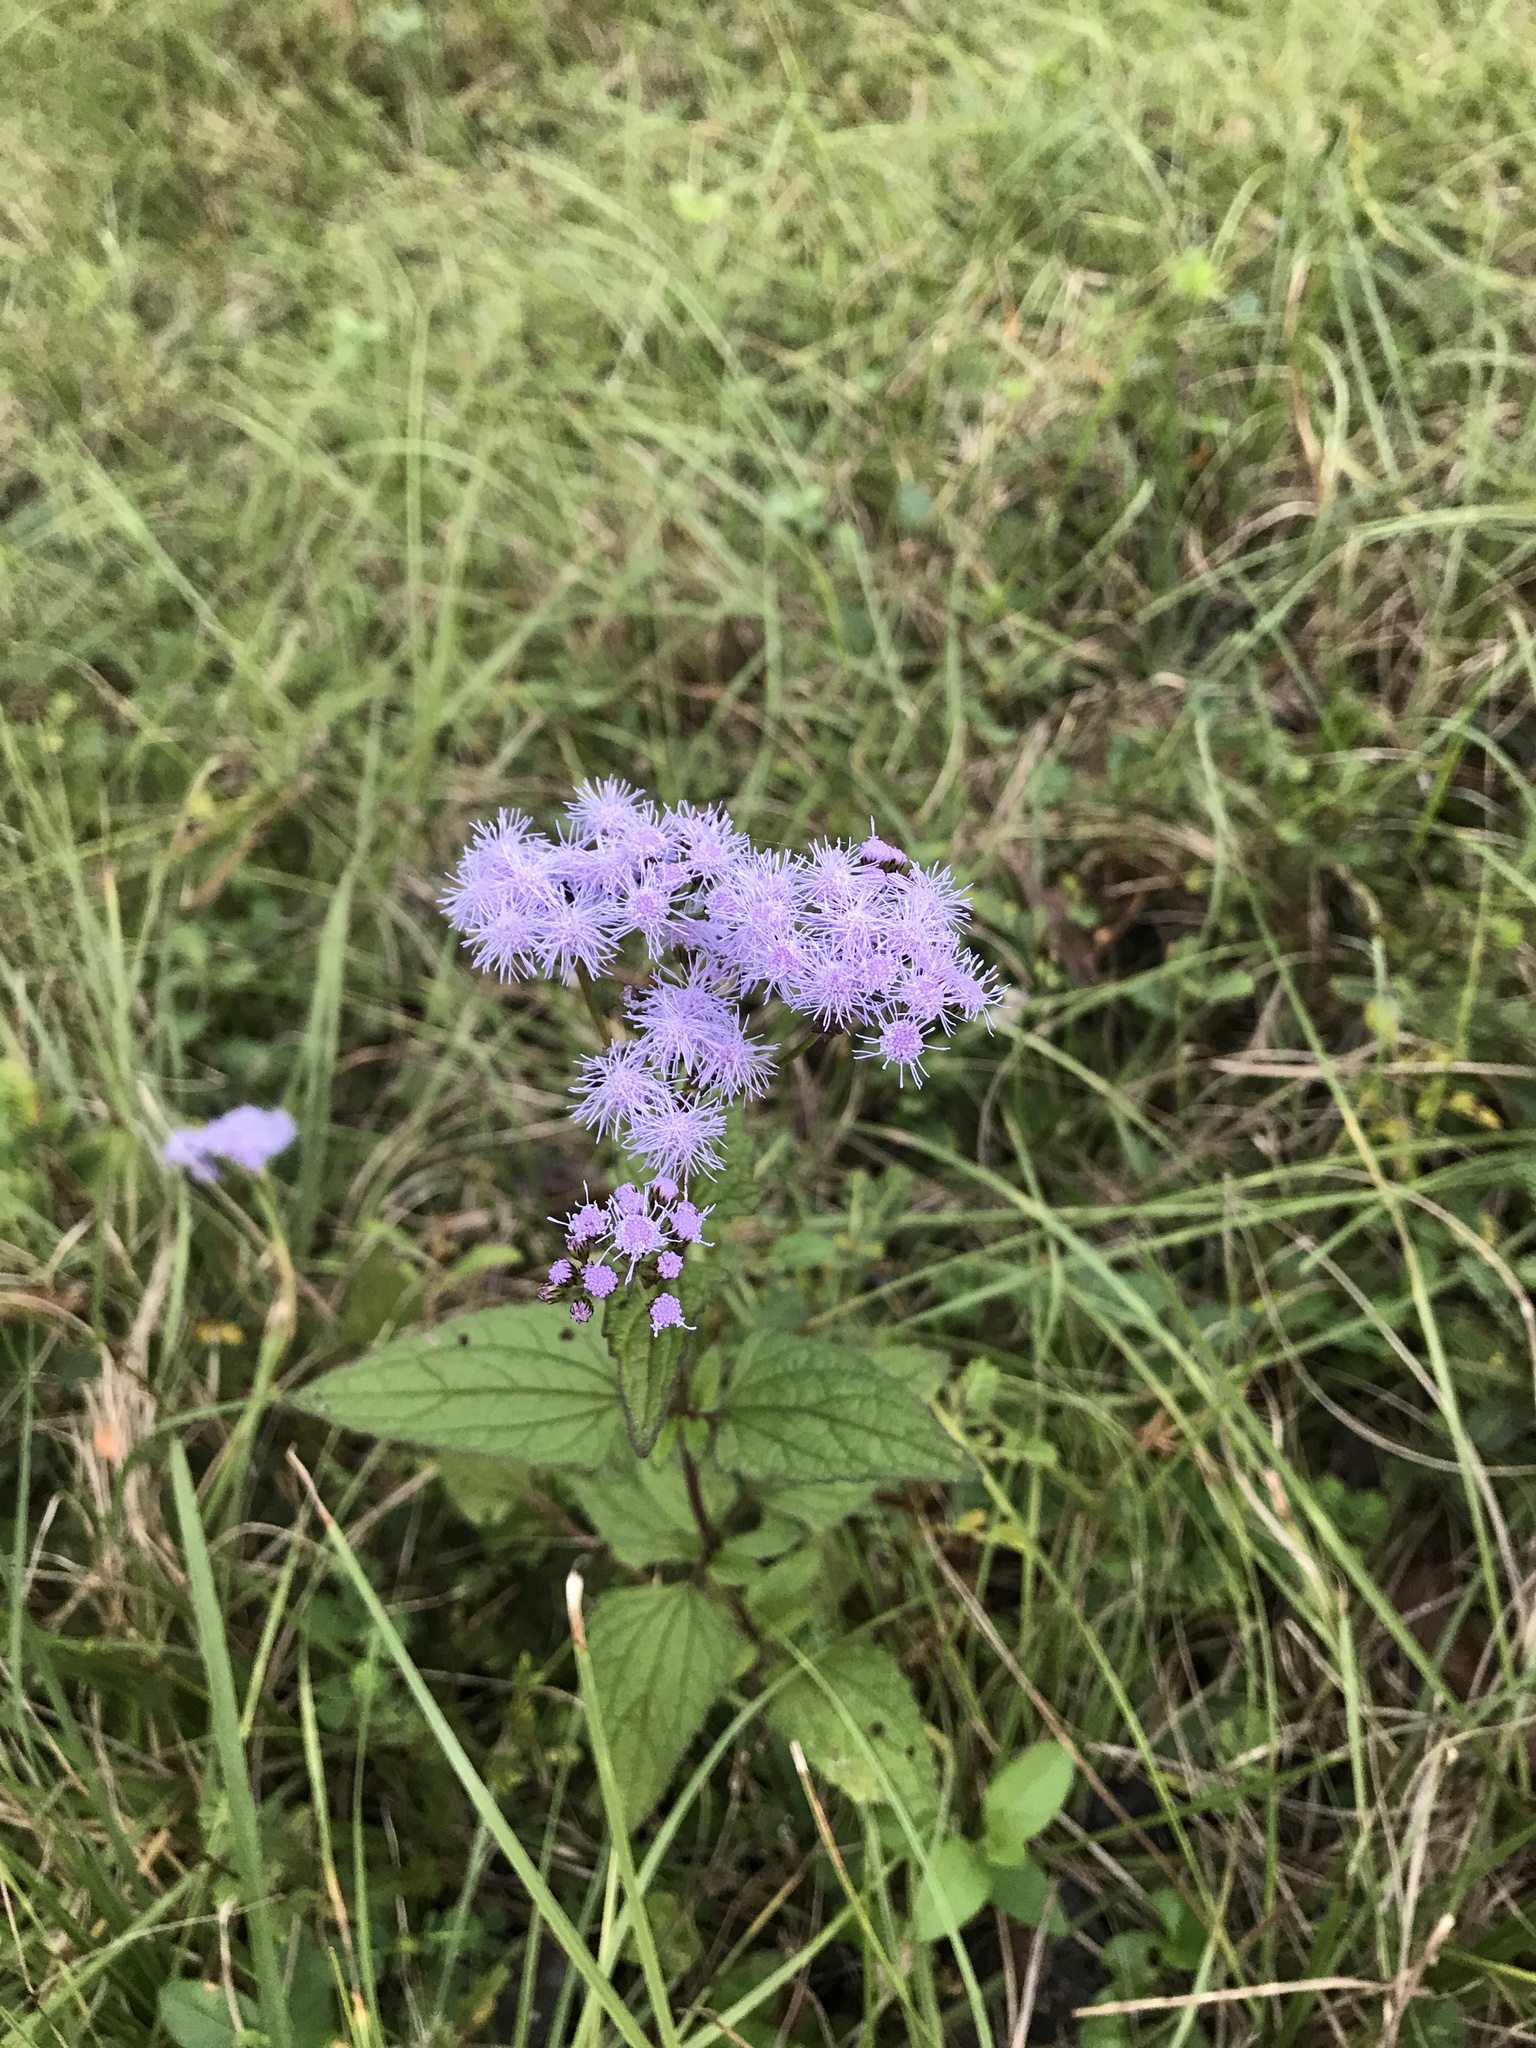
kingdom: Plantae
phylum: Tracheophyta
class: Magnoliopsida
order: Asterales
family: Asteraceae
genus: Conoclinium
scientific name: Conoclinium coelestinum
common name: Blue mistflower
